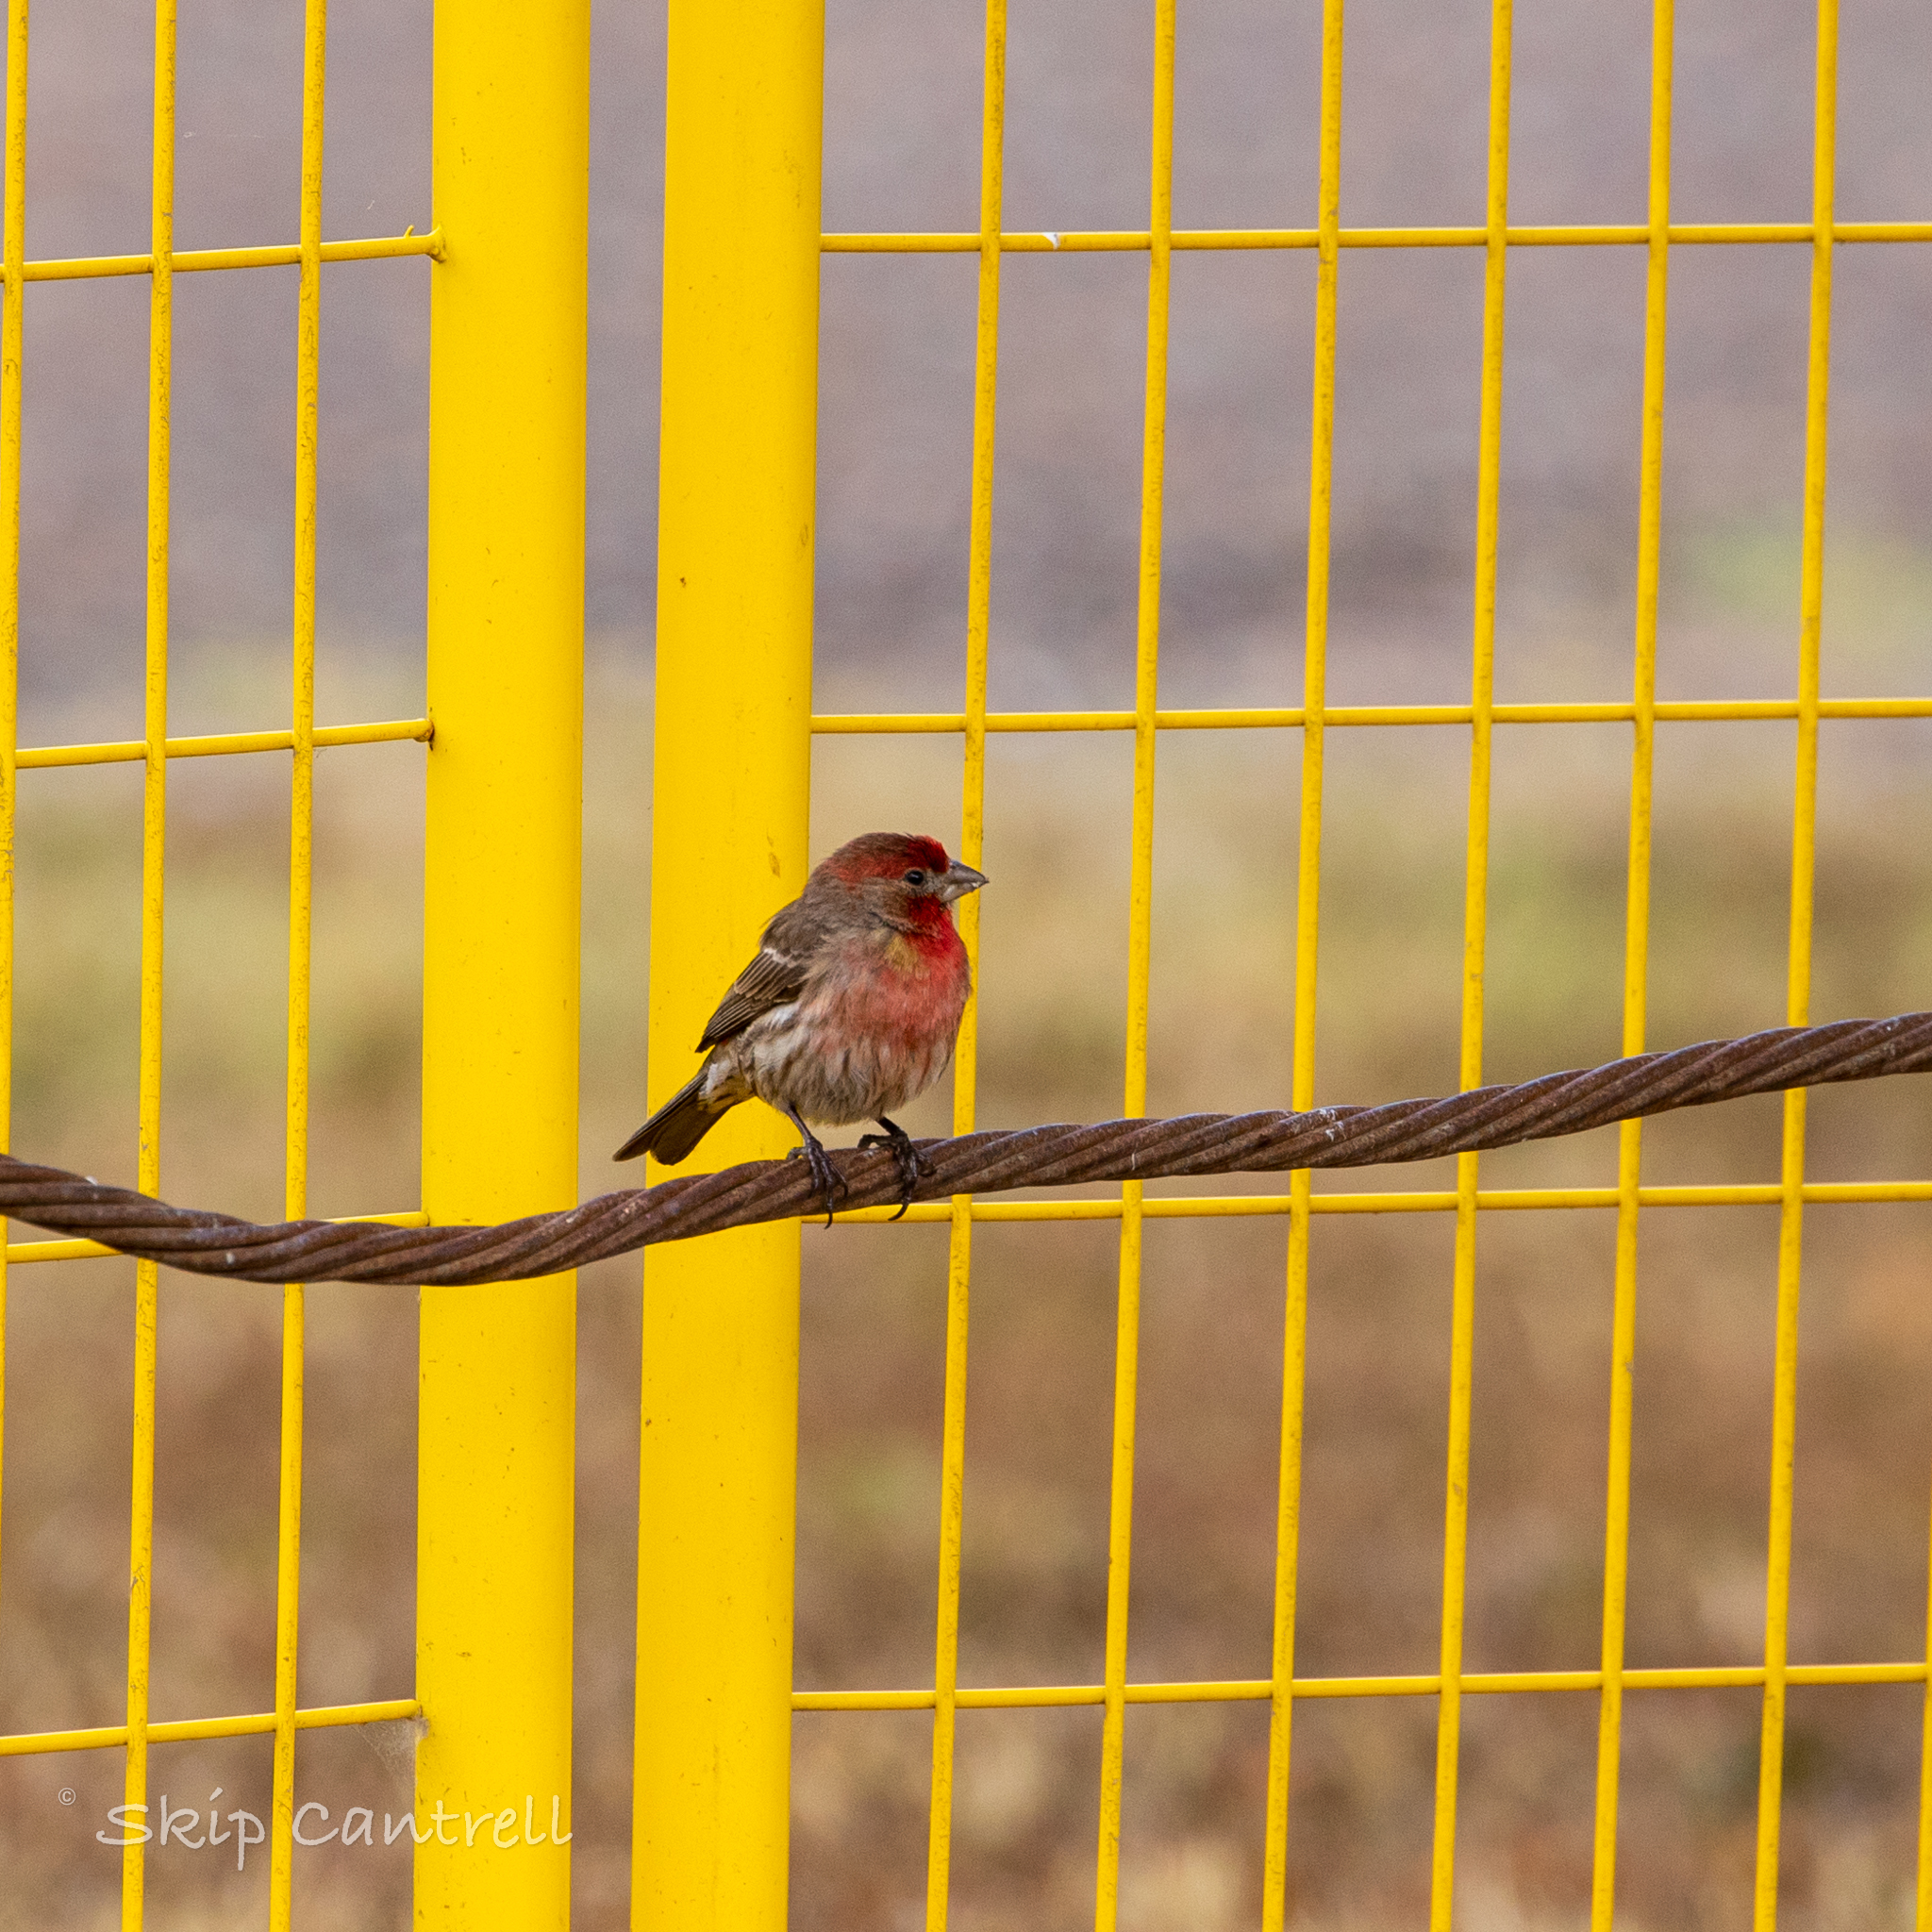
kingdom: Animalia
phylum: Chordata
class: Aves
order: Passeriformes
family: Fringillidae
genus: Haemorhous
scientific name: Haemorhous mexicanus
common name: House finch
